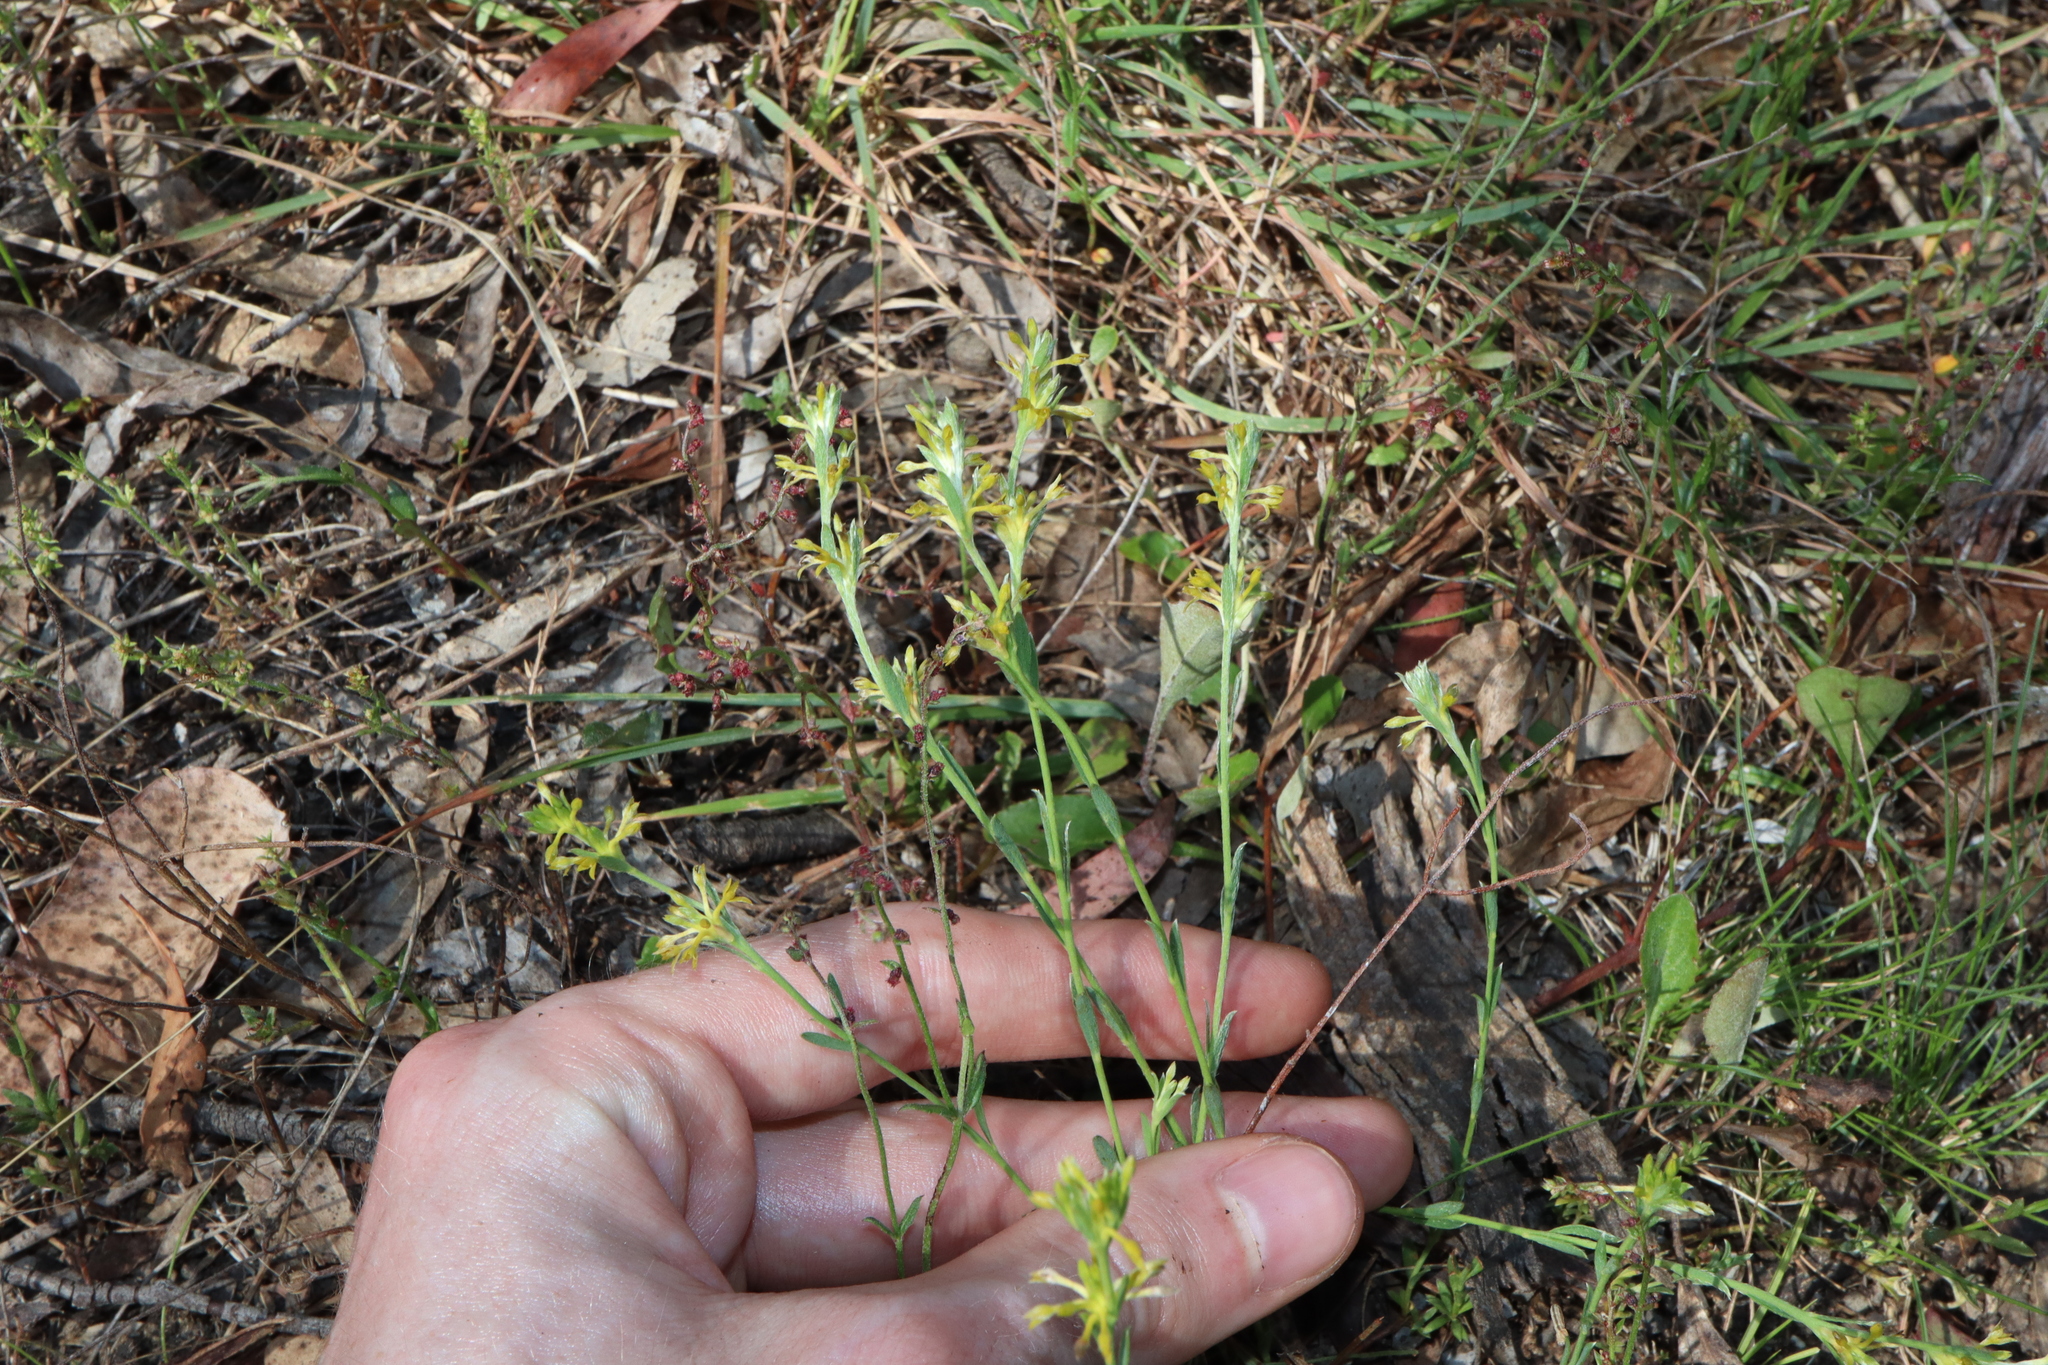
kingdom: Plantae
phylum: Tracheophyta
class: Magnoliopsida
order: Malvales
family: Thymelaeaceae
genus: Pimelea
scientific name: Pimelea curviflora
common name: Curved riceflower
